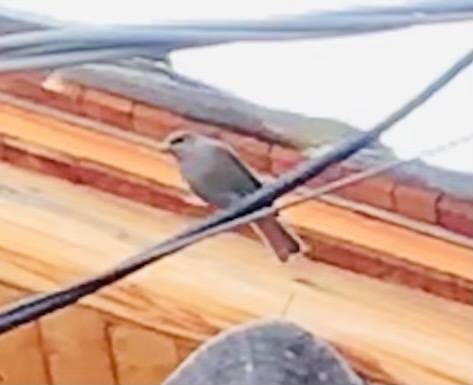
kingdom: Animalia
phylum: Chordata
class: Aves
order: Passeriformes
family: Muscicapidae
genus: Phoenicurus
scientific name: Phoenicurus ochruros
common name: Black redstart
